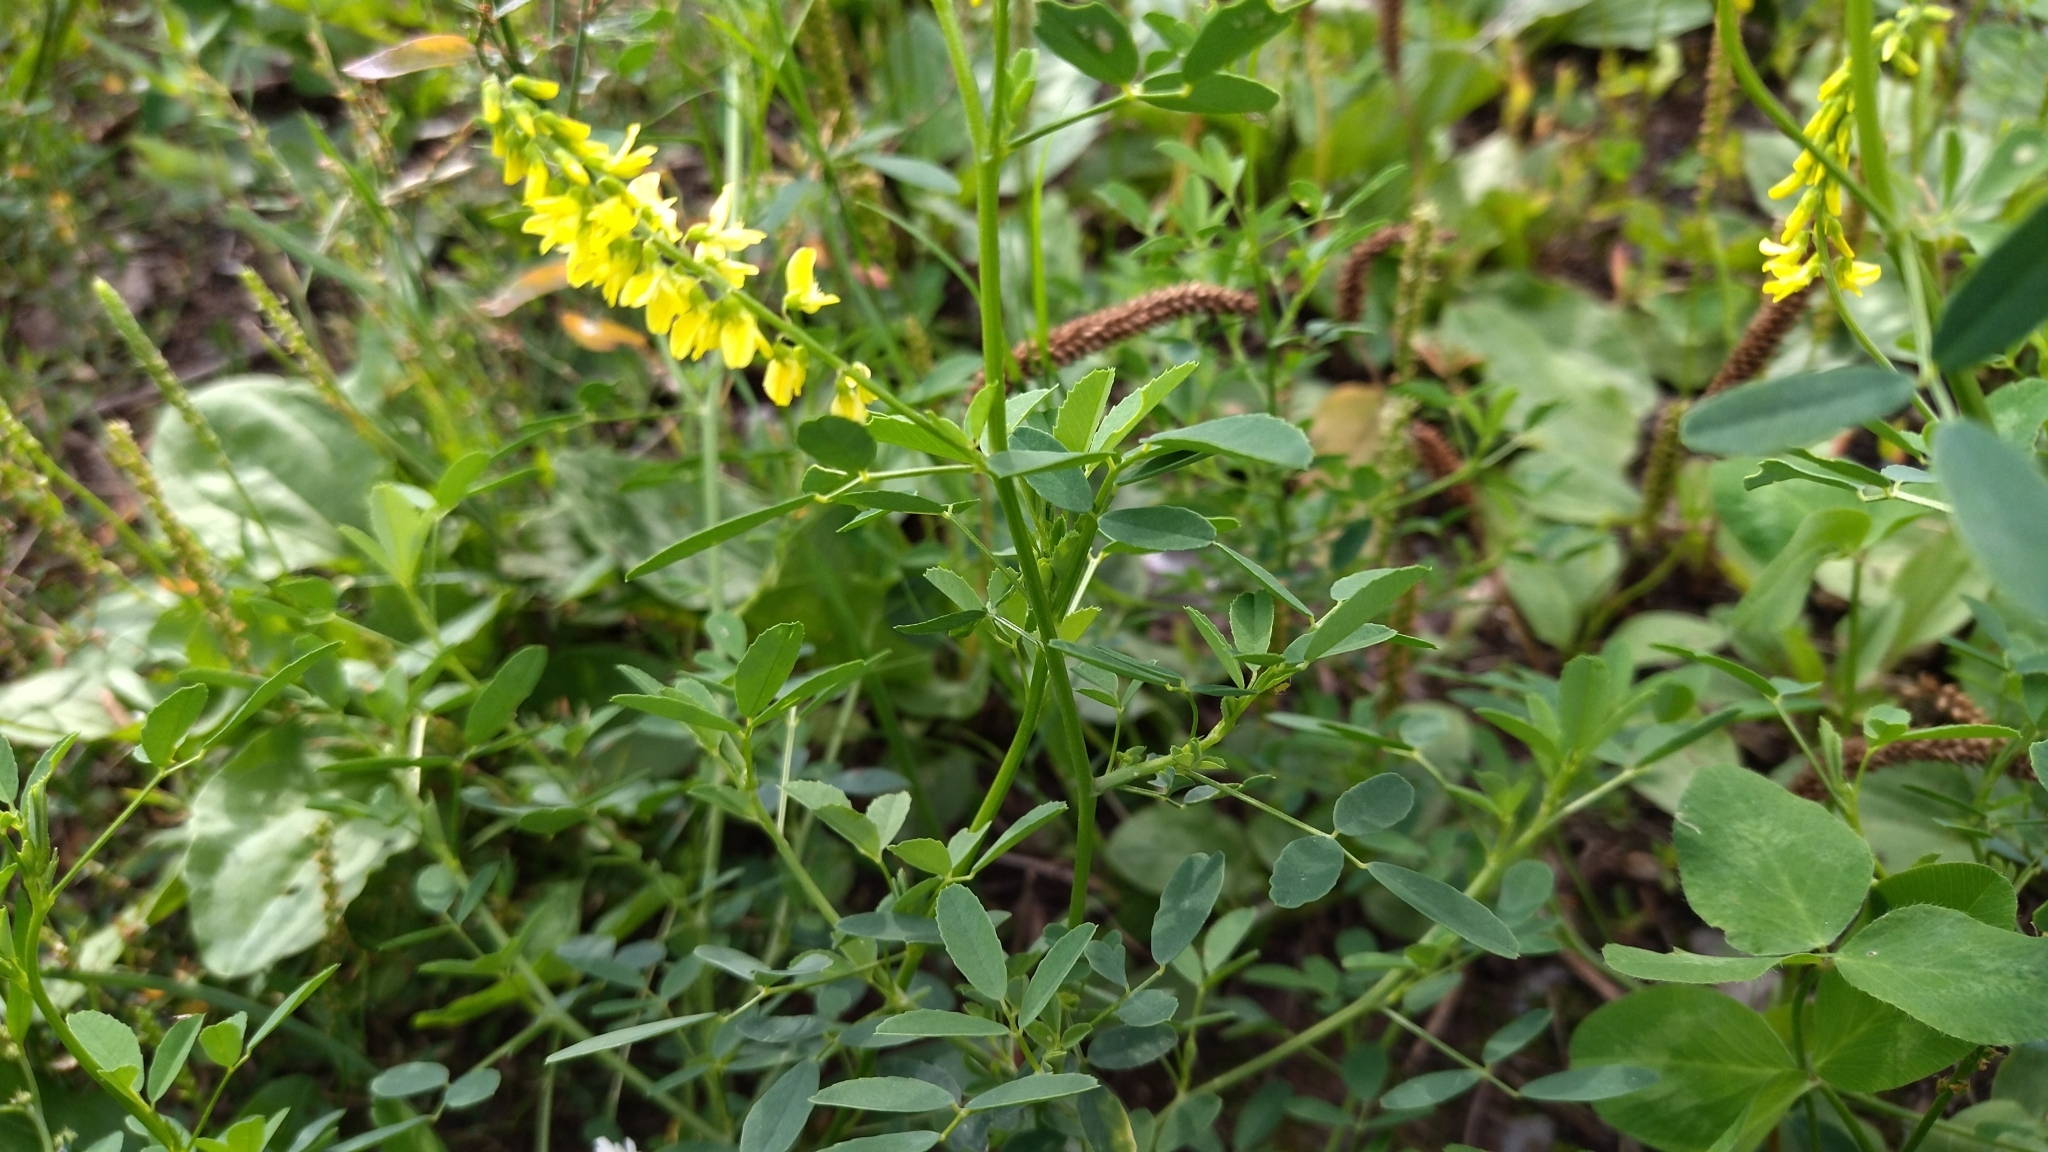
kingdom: Plantae
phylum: Tracheophyta
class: Magnoliopsida
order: Fabales
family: Fabaceae
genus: Melilotus
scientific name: Melilotus officinalis
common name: Sweetclover
